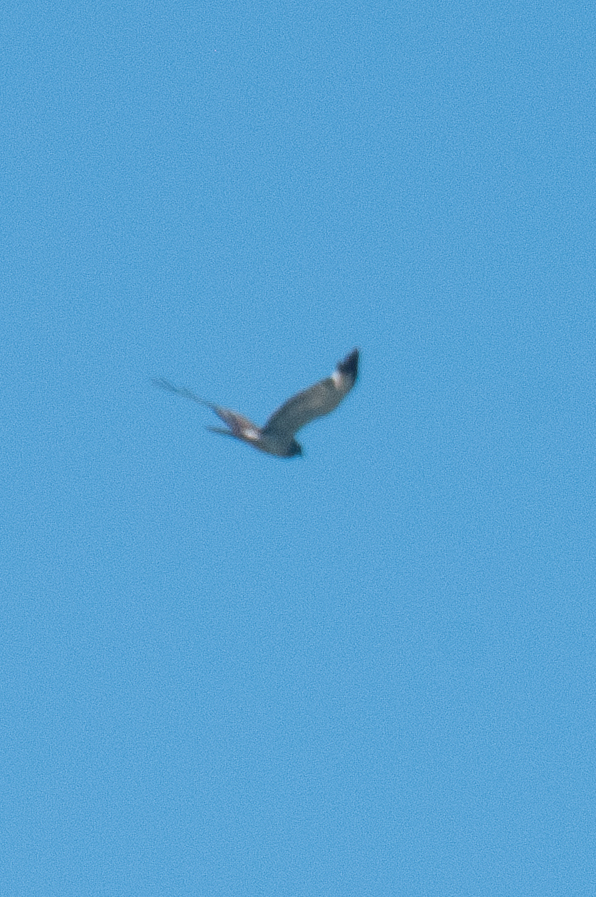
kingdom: Animalia
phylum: Chordata
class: Aves
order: Accipitriformes
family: Accipitridae
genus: Circus
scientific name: Circus cyaneus
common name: Hen harrier
